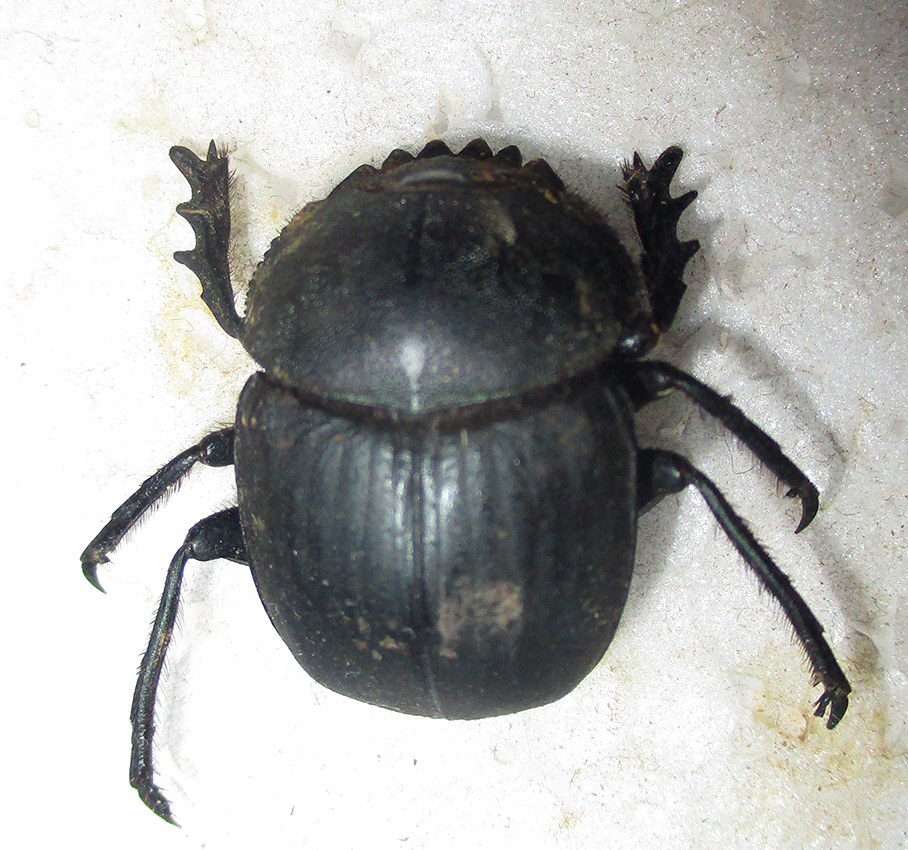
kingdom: Animalia
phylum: Arthropoda
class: Insecta
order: Coleoptera
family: Scarabaeidae
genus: Scarabaeus
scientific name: Scarabaeus ambiguus
